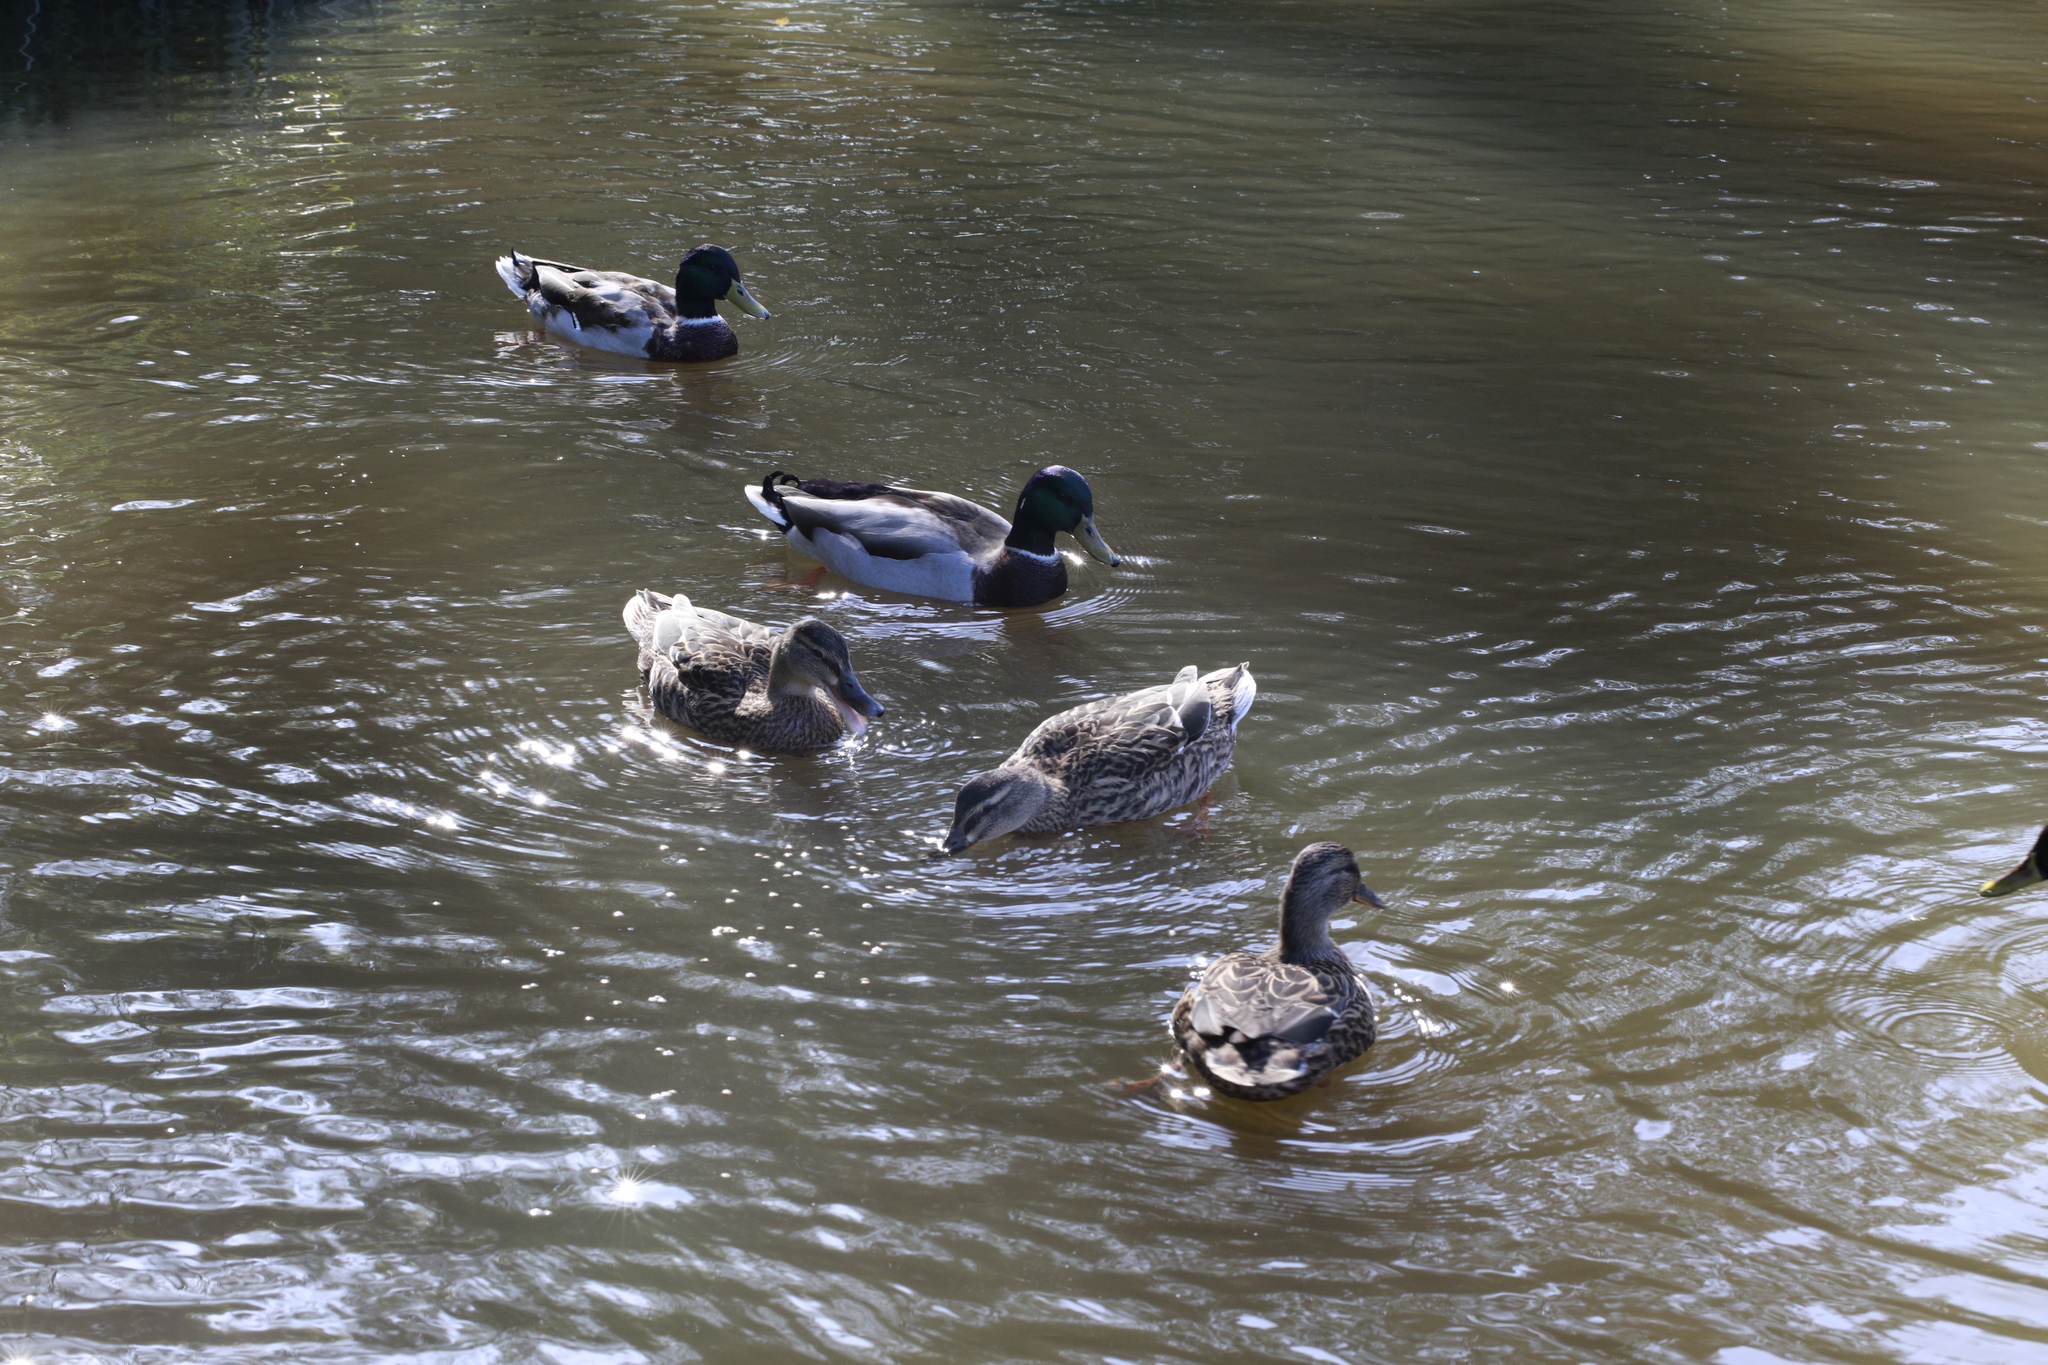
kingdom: Animalia
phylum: Chordata
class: Aves
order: Anseriformes
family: Anatidae
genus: Anas
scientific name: Anas platyrhynchos
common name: Mallard
